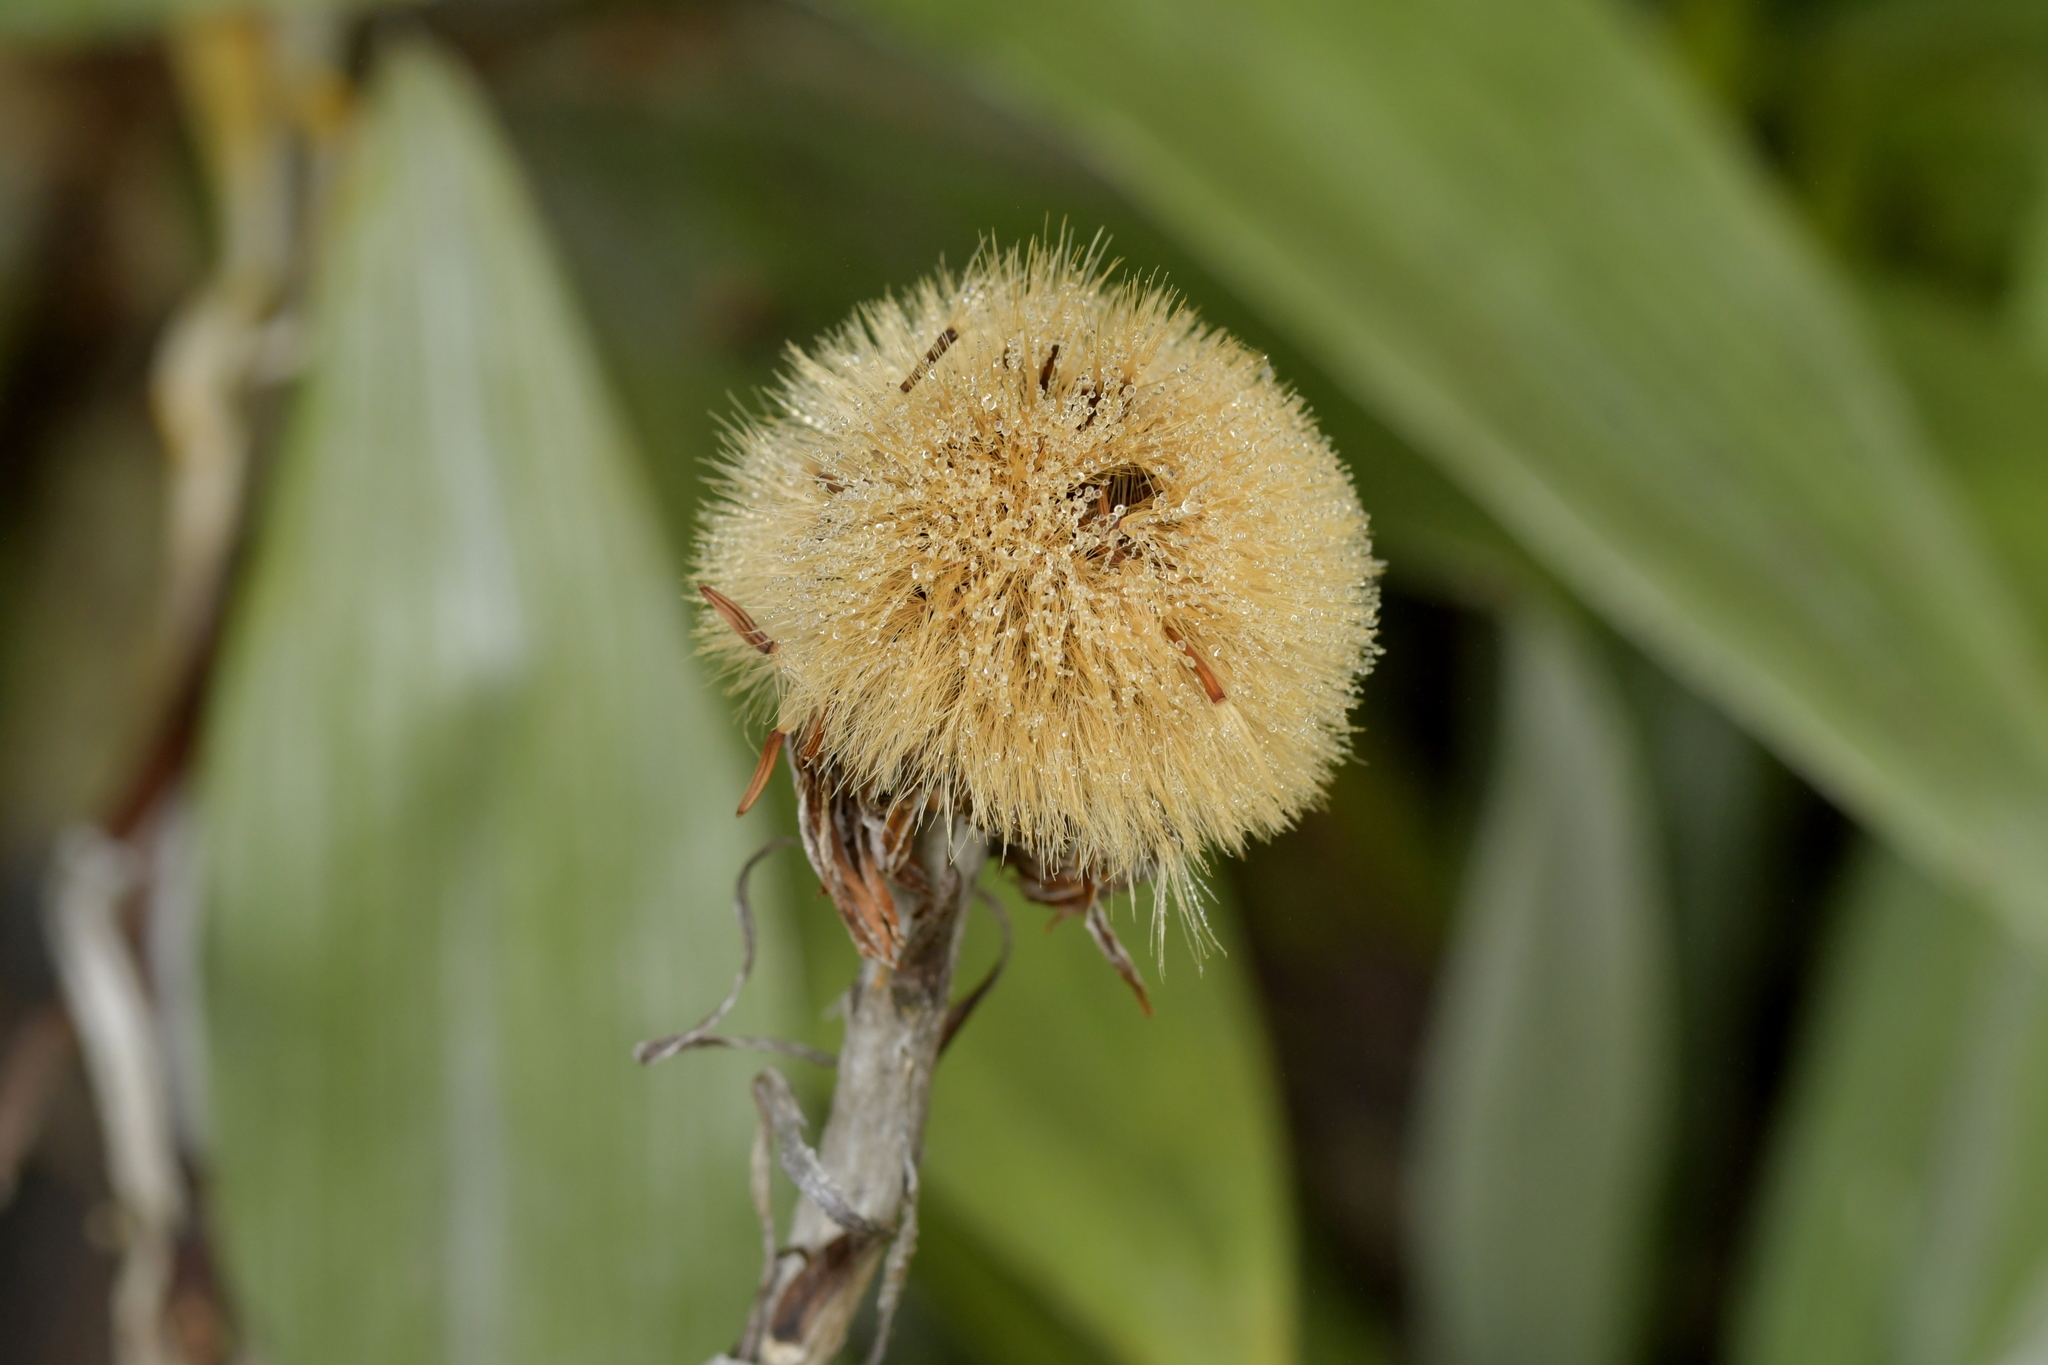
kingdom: Plantae
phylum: Tracheophyta
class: Magnoliopsida
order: Asterales
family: Asteraceae
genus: Celmisia
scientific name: Celmisia semicordata
